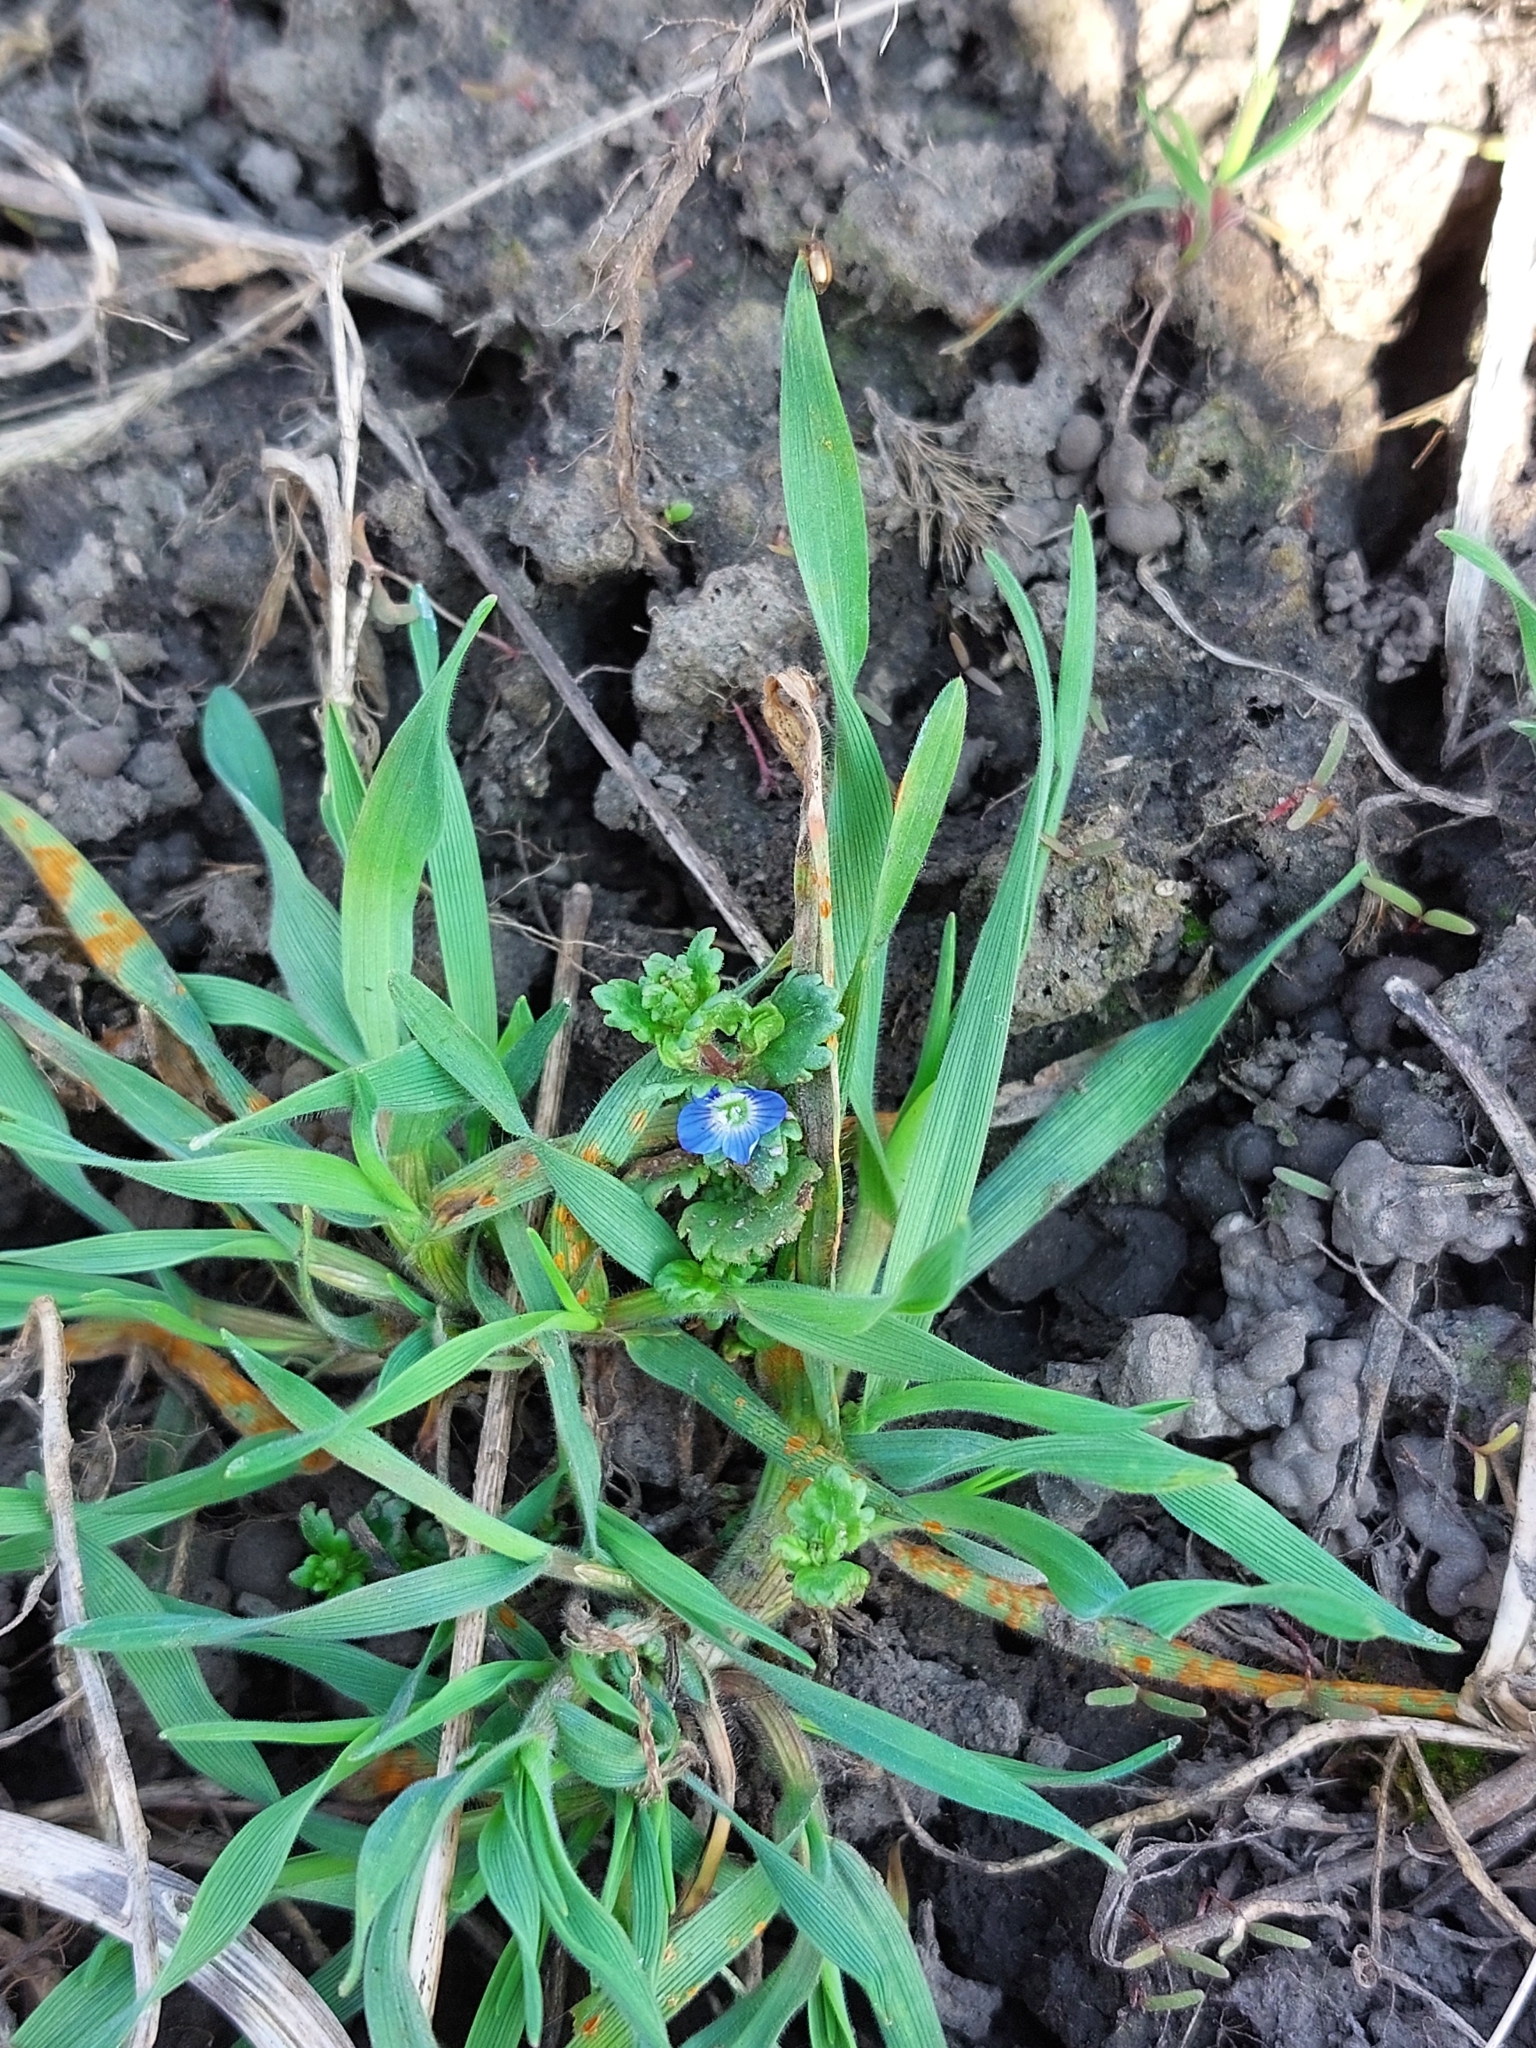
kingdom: Plantae
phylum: Tracheophyta
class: Magnoliopsida
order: Lamiales
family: Plantaginaceae
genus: Veronica
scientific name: Veronica polita
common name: Grey field-speedwell
